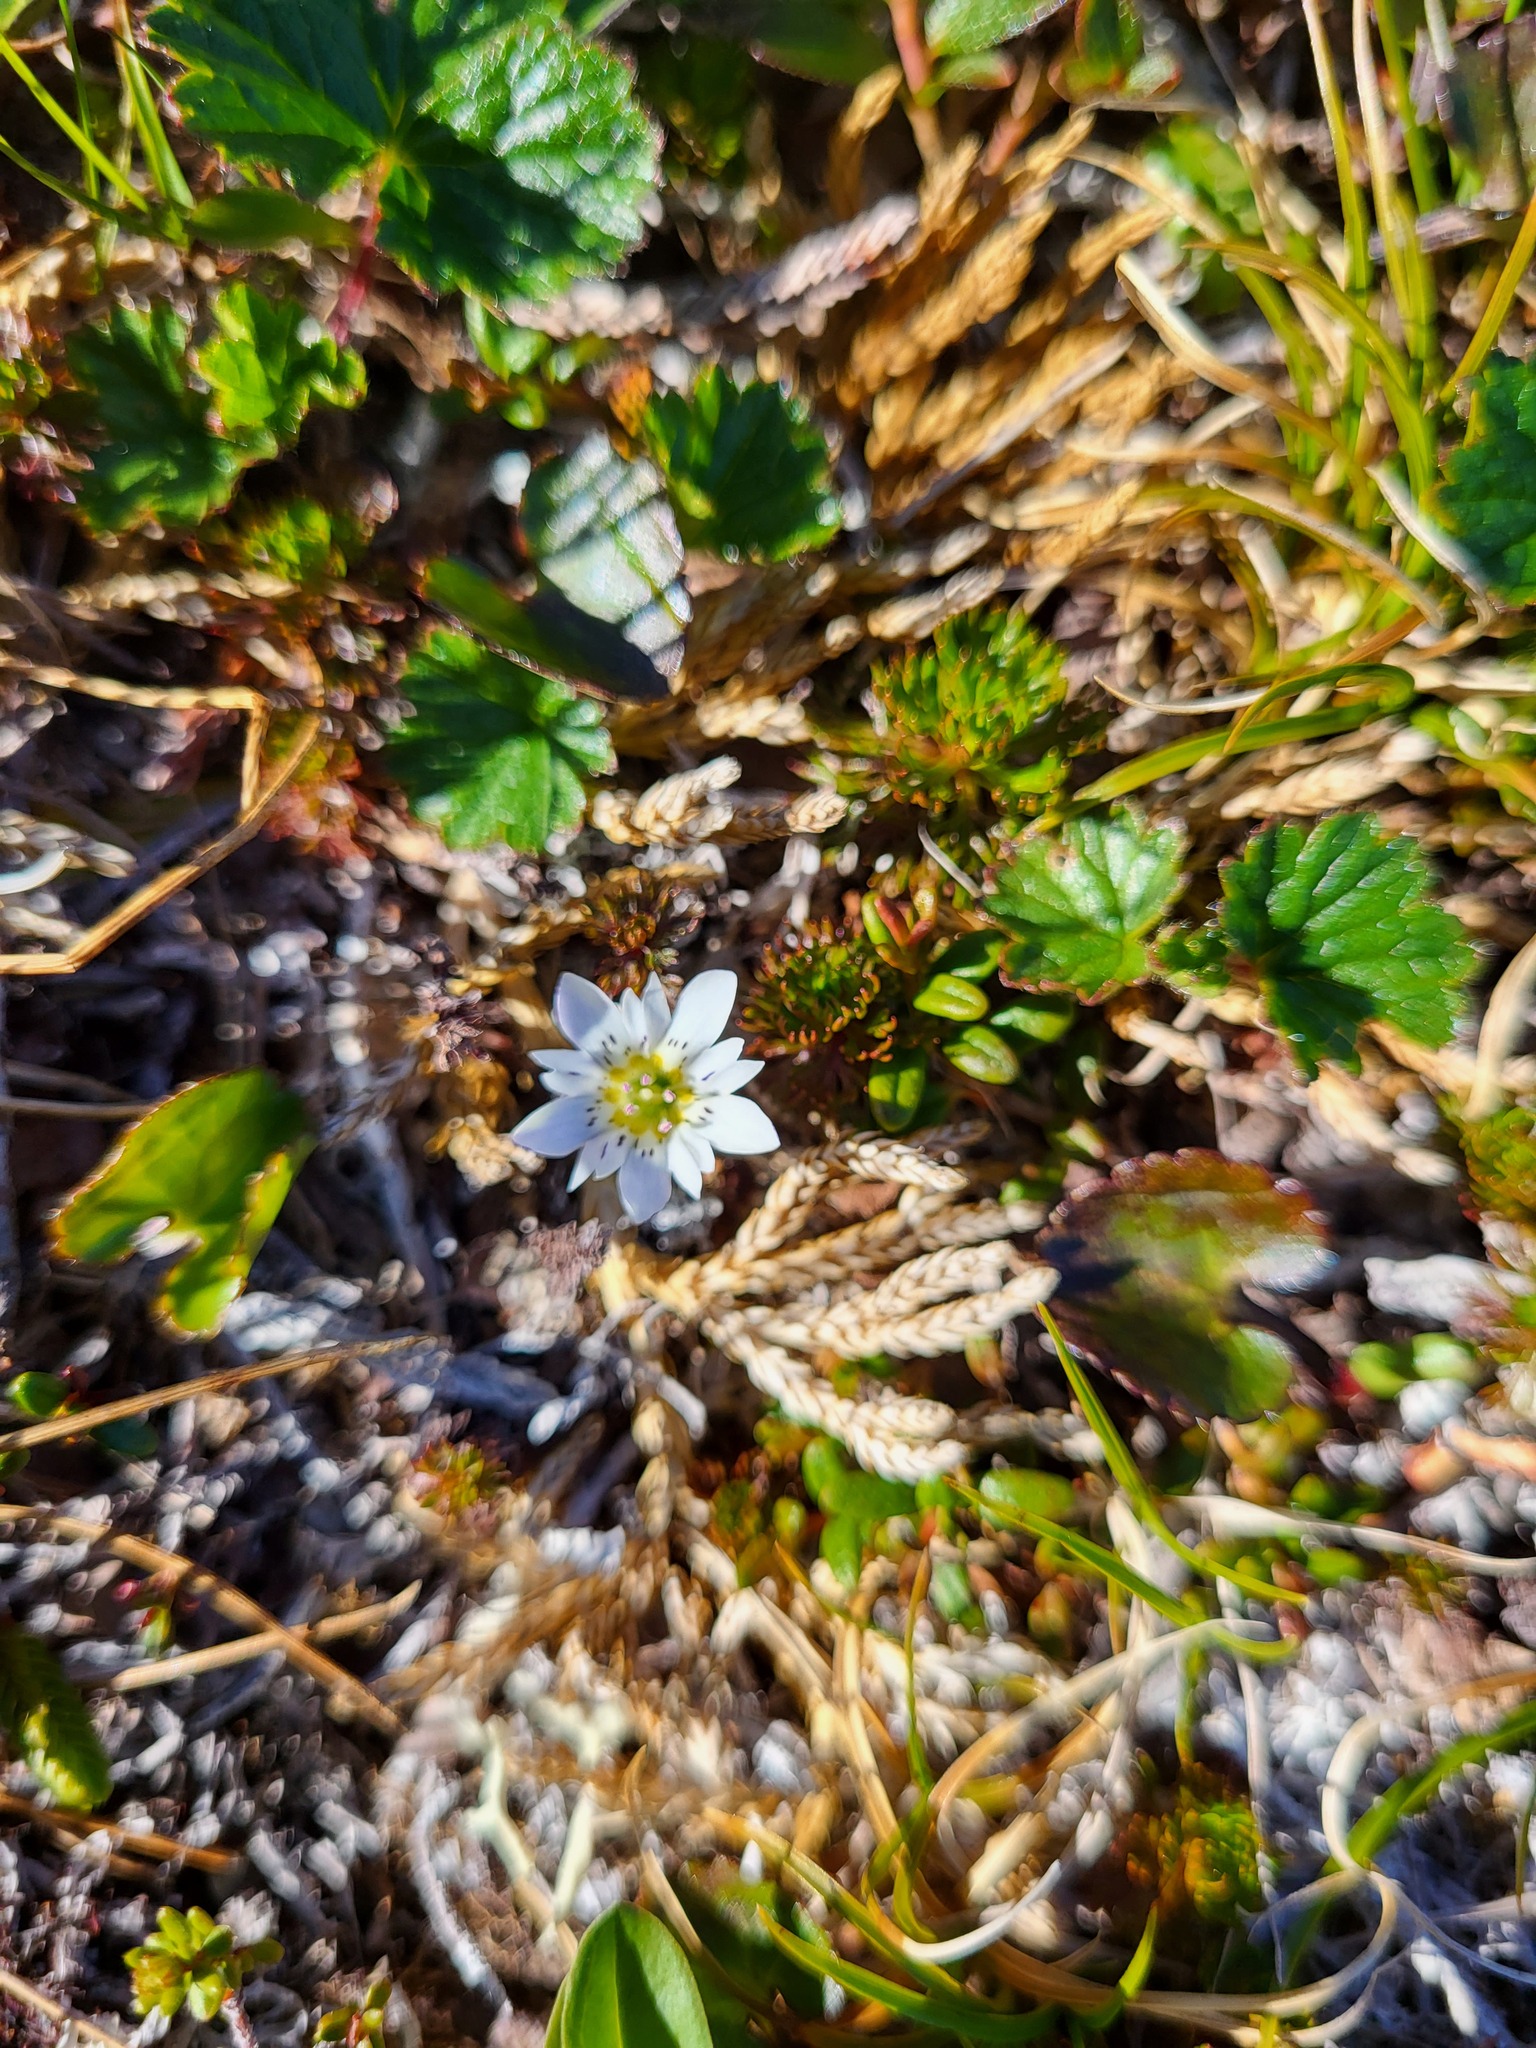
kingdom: Plantae
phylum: Tracheophyta
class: Magnoliopsida
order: Gentianales
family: Gentianaceae
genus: Gentiana
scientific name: Gentiana douglasiana
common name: Swamp gentian
